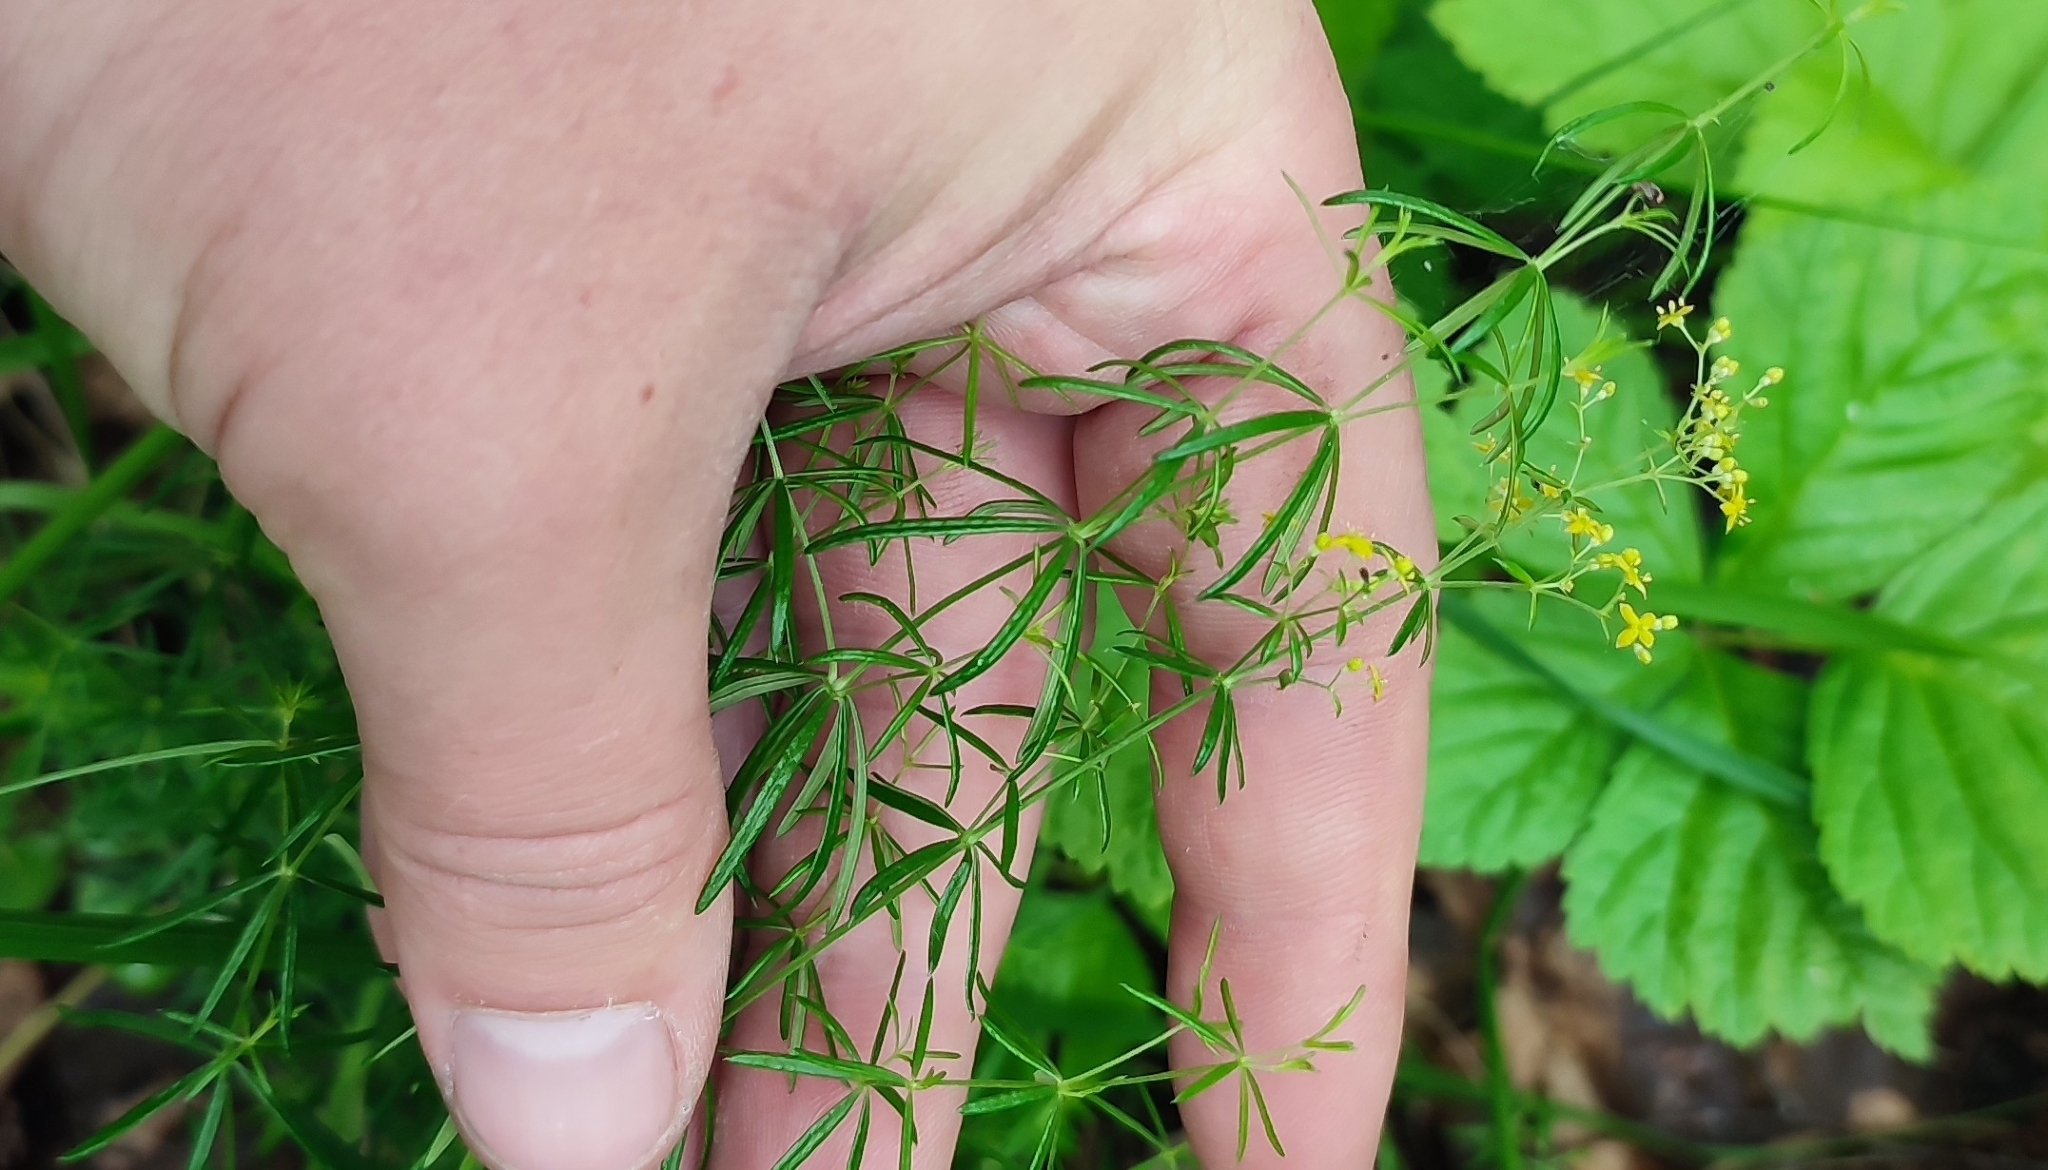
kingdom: Plantae
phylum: Tracheophyta
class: Magnoliopsida
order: Gentianales
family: Rubiaceae
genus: Galium
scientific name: Galium verum
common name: Lady's bedstraw
